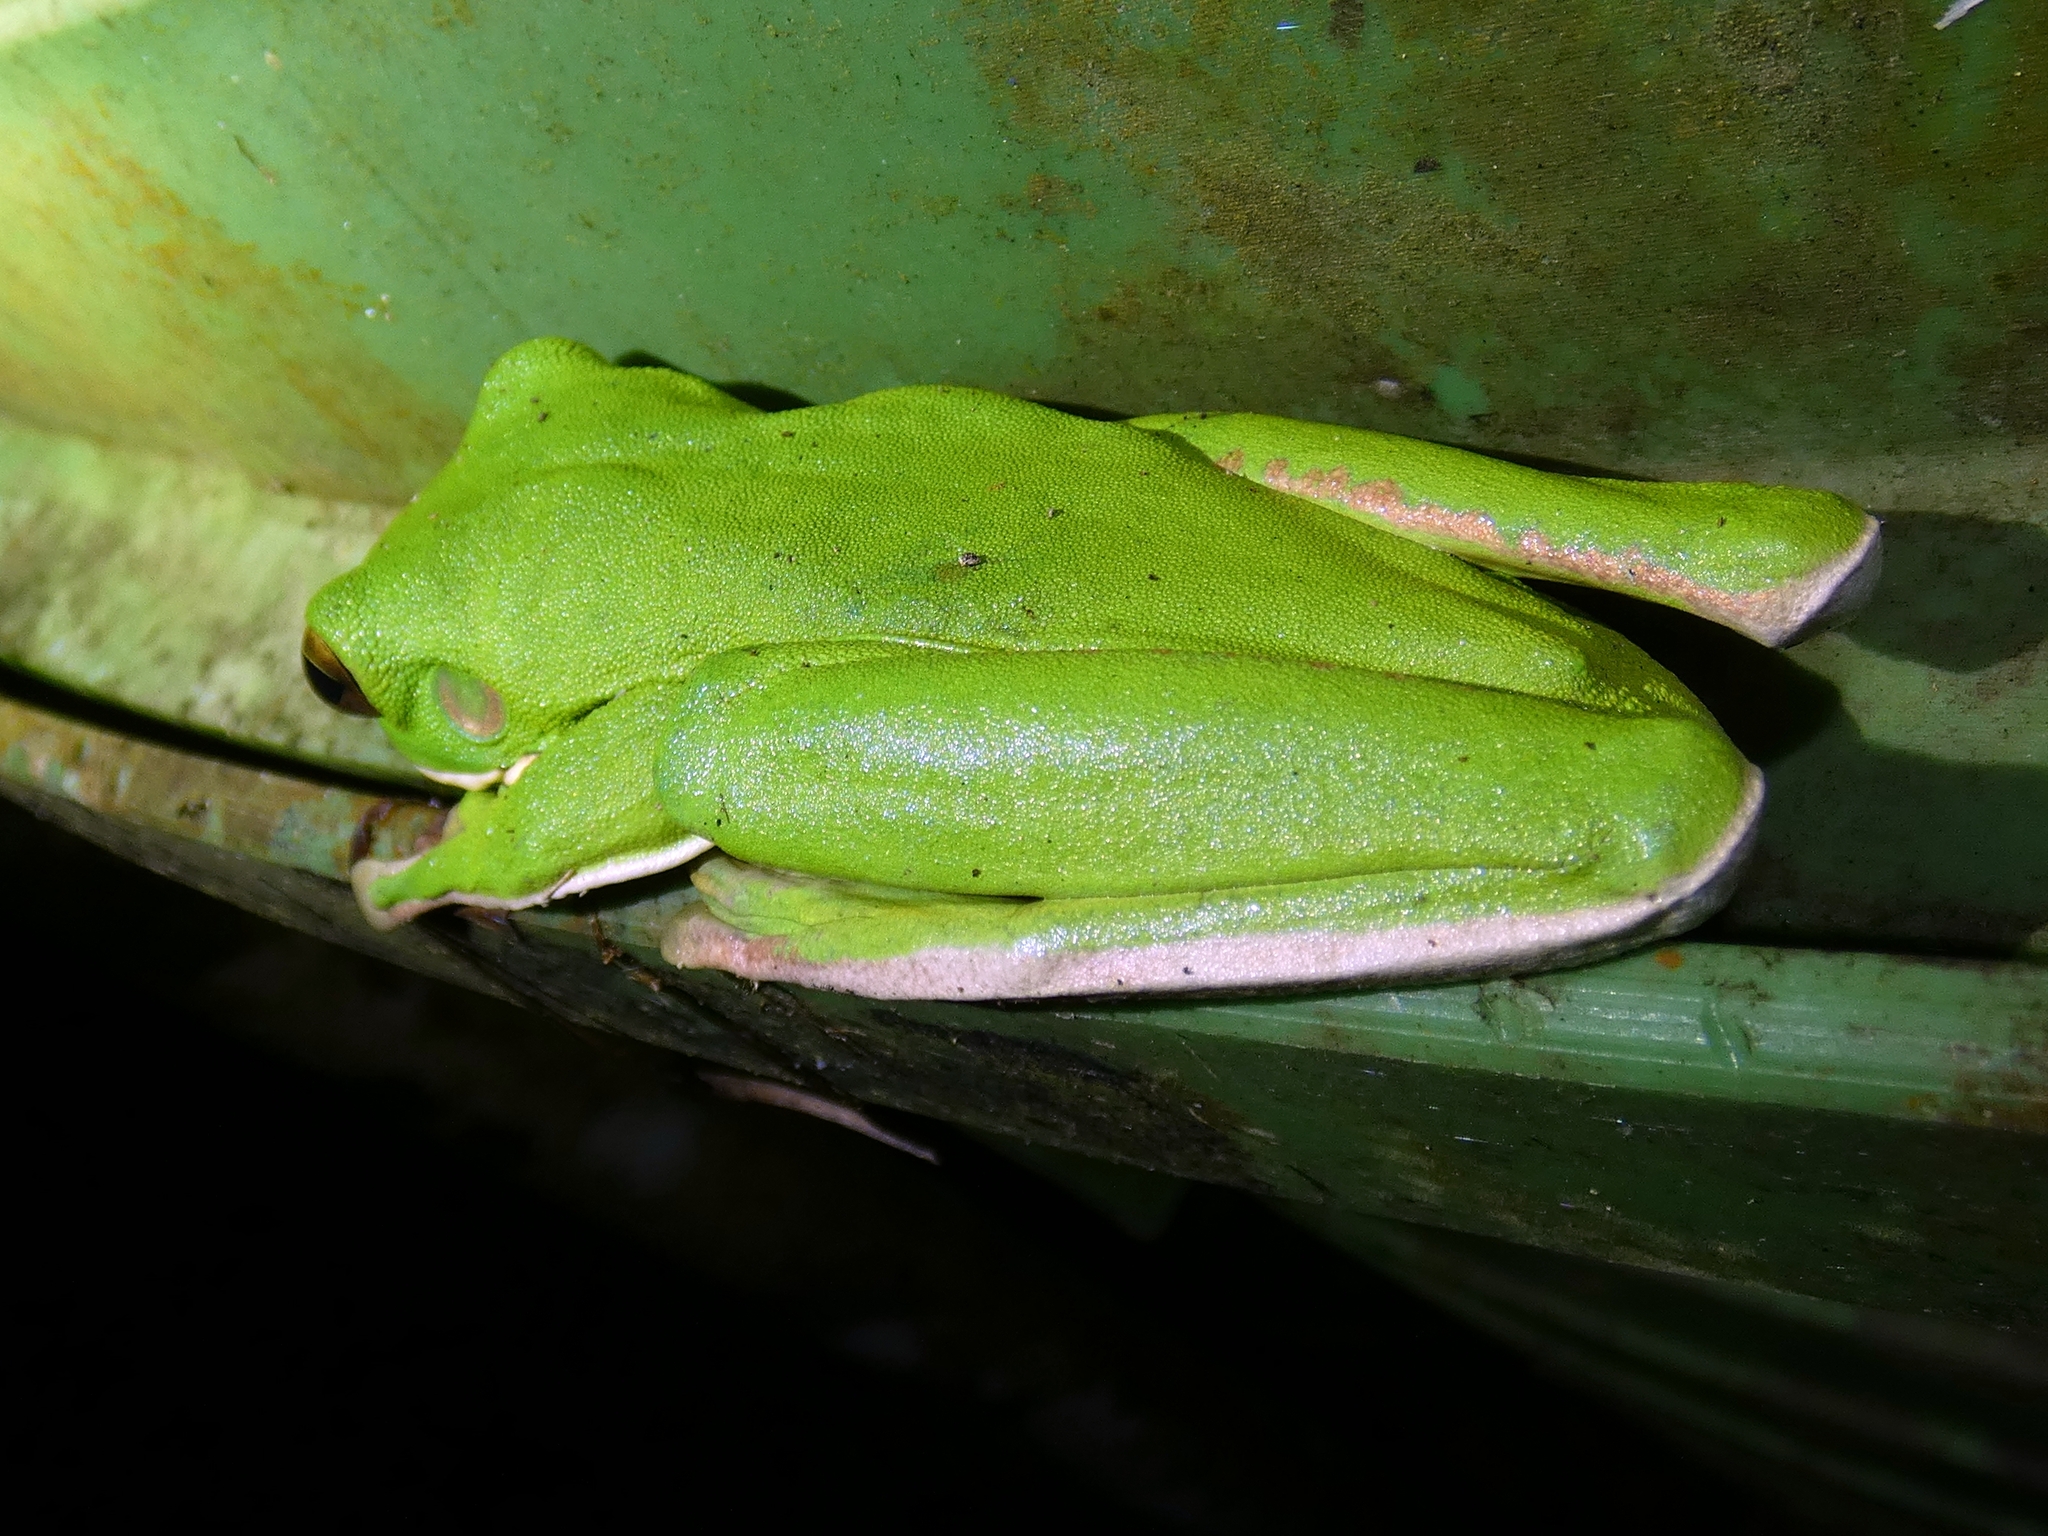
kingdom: Animalia
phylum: Chordata
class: Amphibia
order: Anura
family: Pelodryadidae
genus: Nyctimystes
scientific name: Nyctimystes infrafrenatus
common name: Australian giant treefrog
